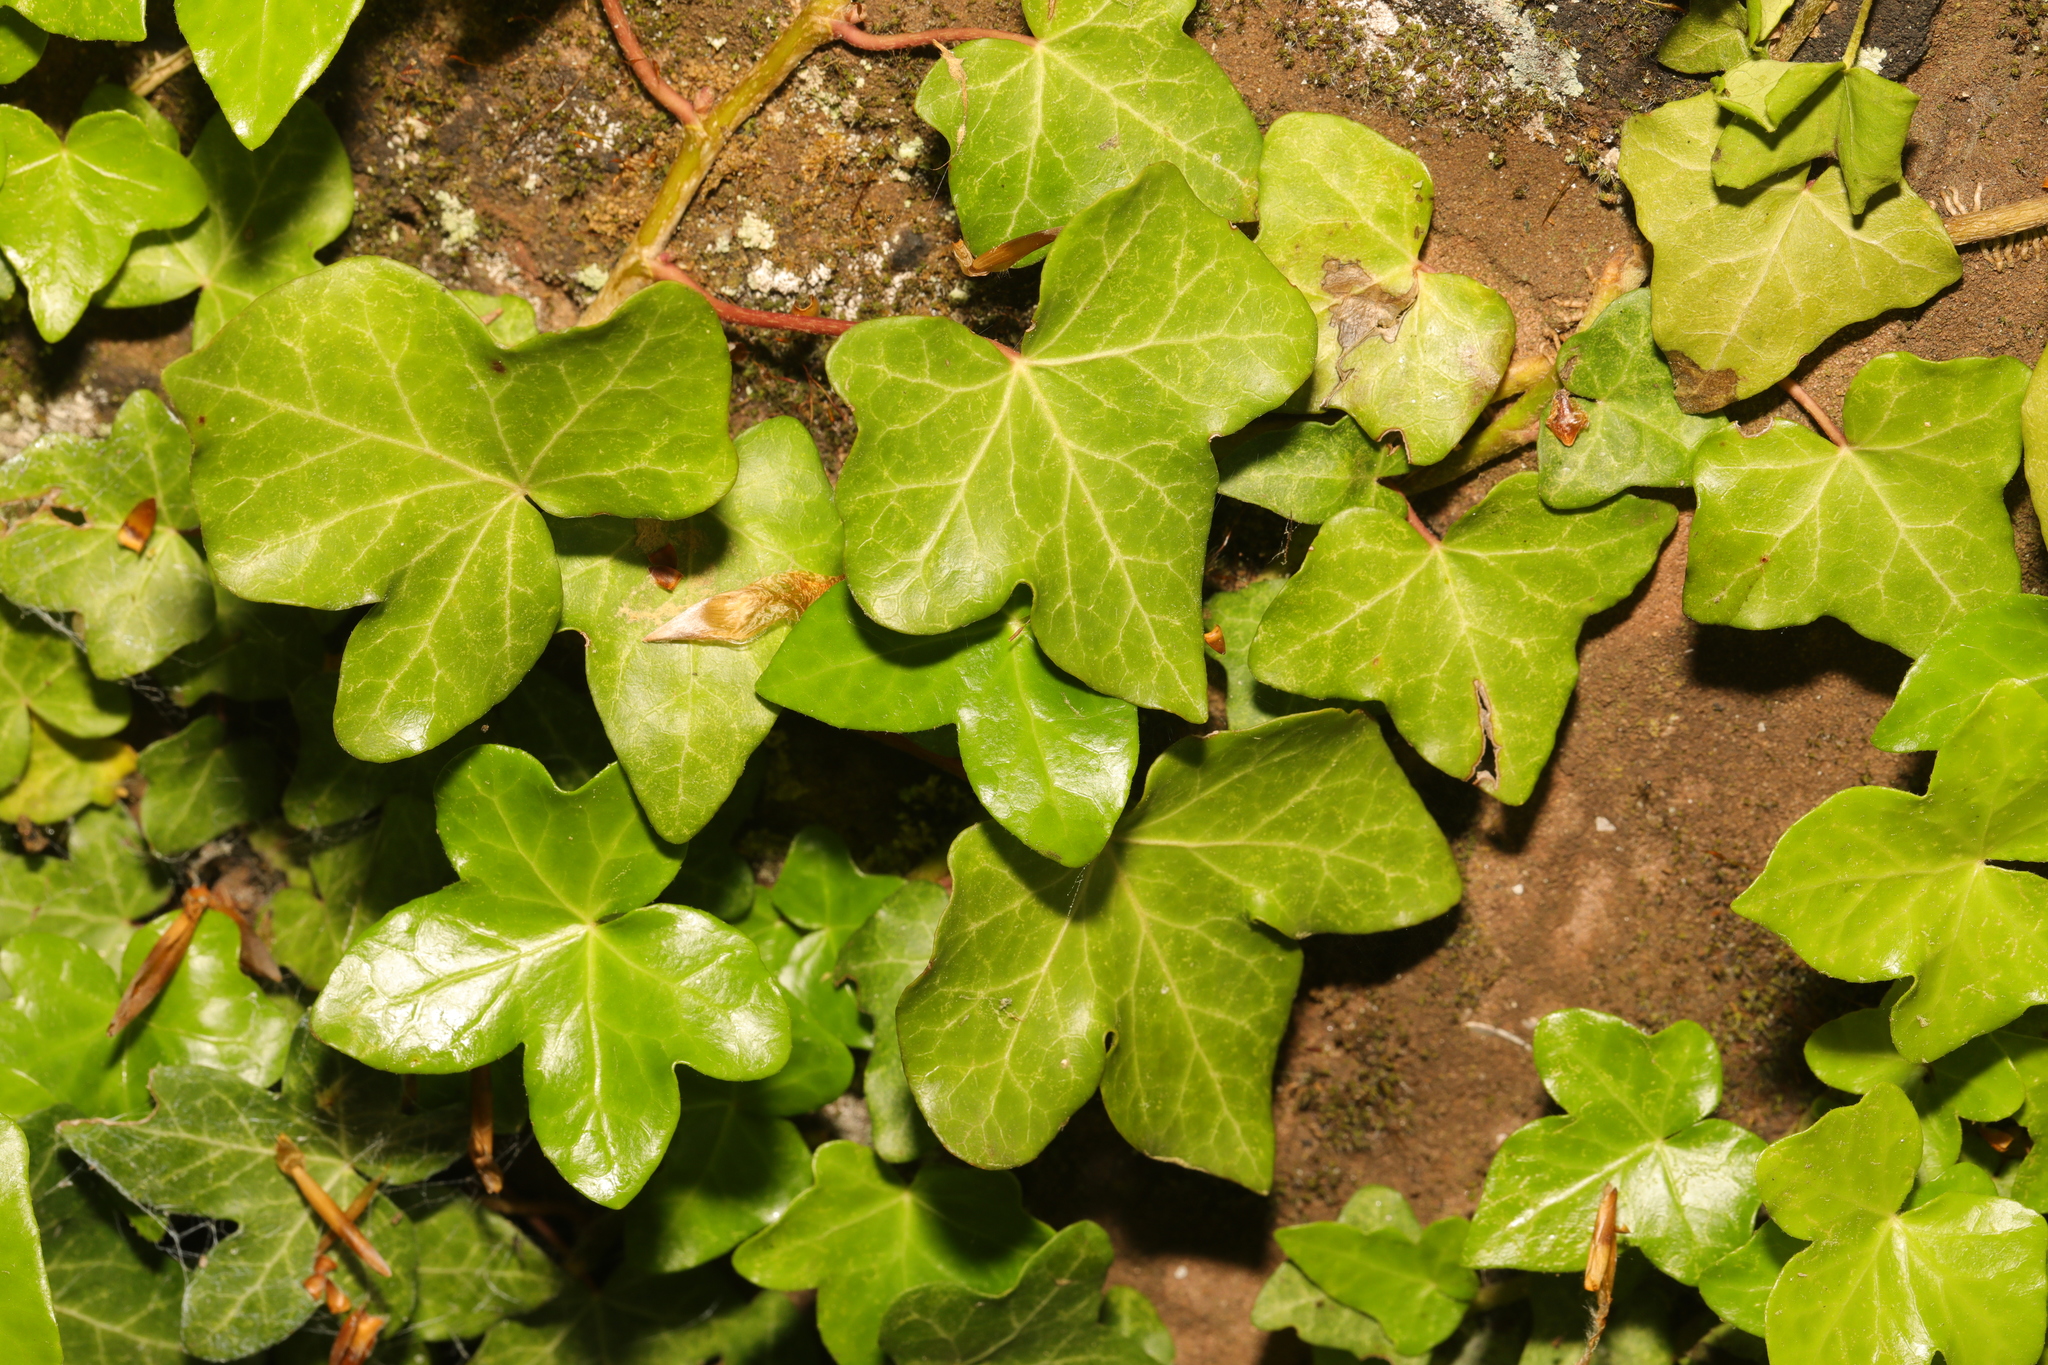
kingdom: Plantae
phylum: Tracheophyta
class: Magnoliopsida
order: Apiales
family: Araliaceae
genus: Hedera
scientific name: Hedera helix
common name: Ivy
